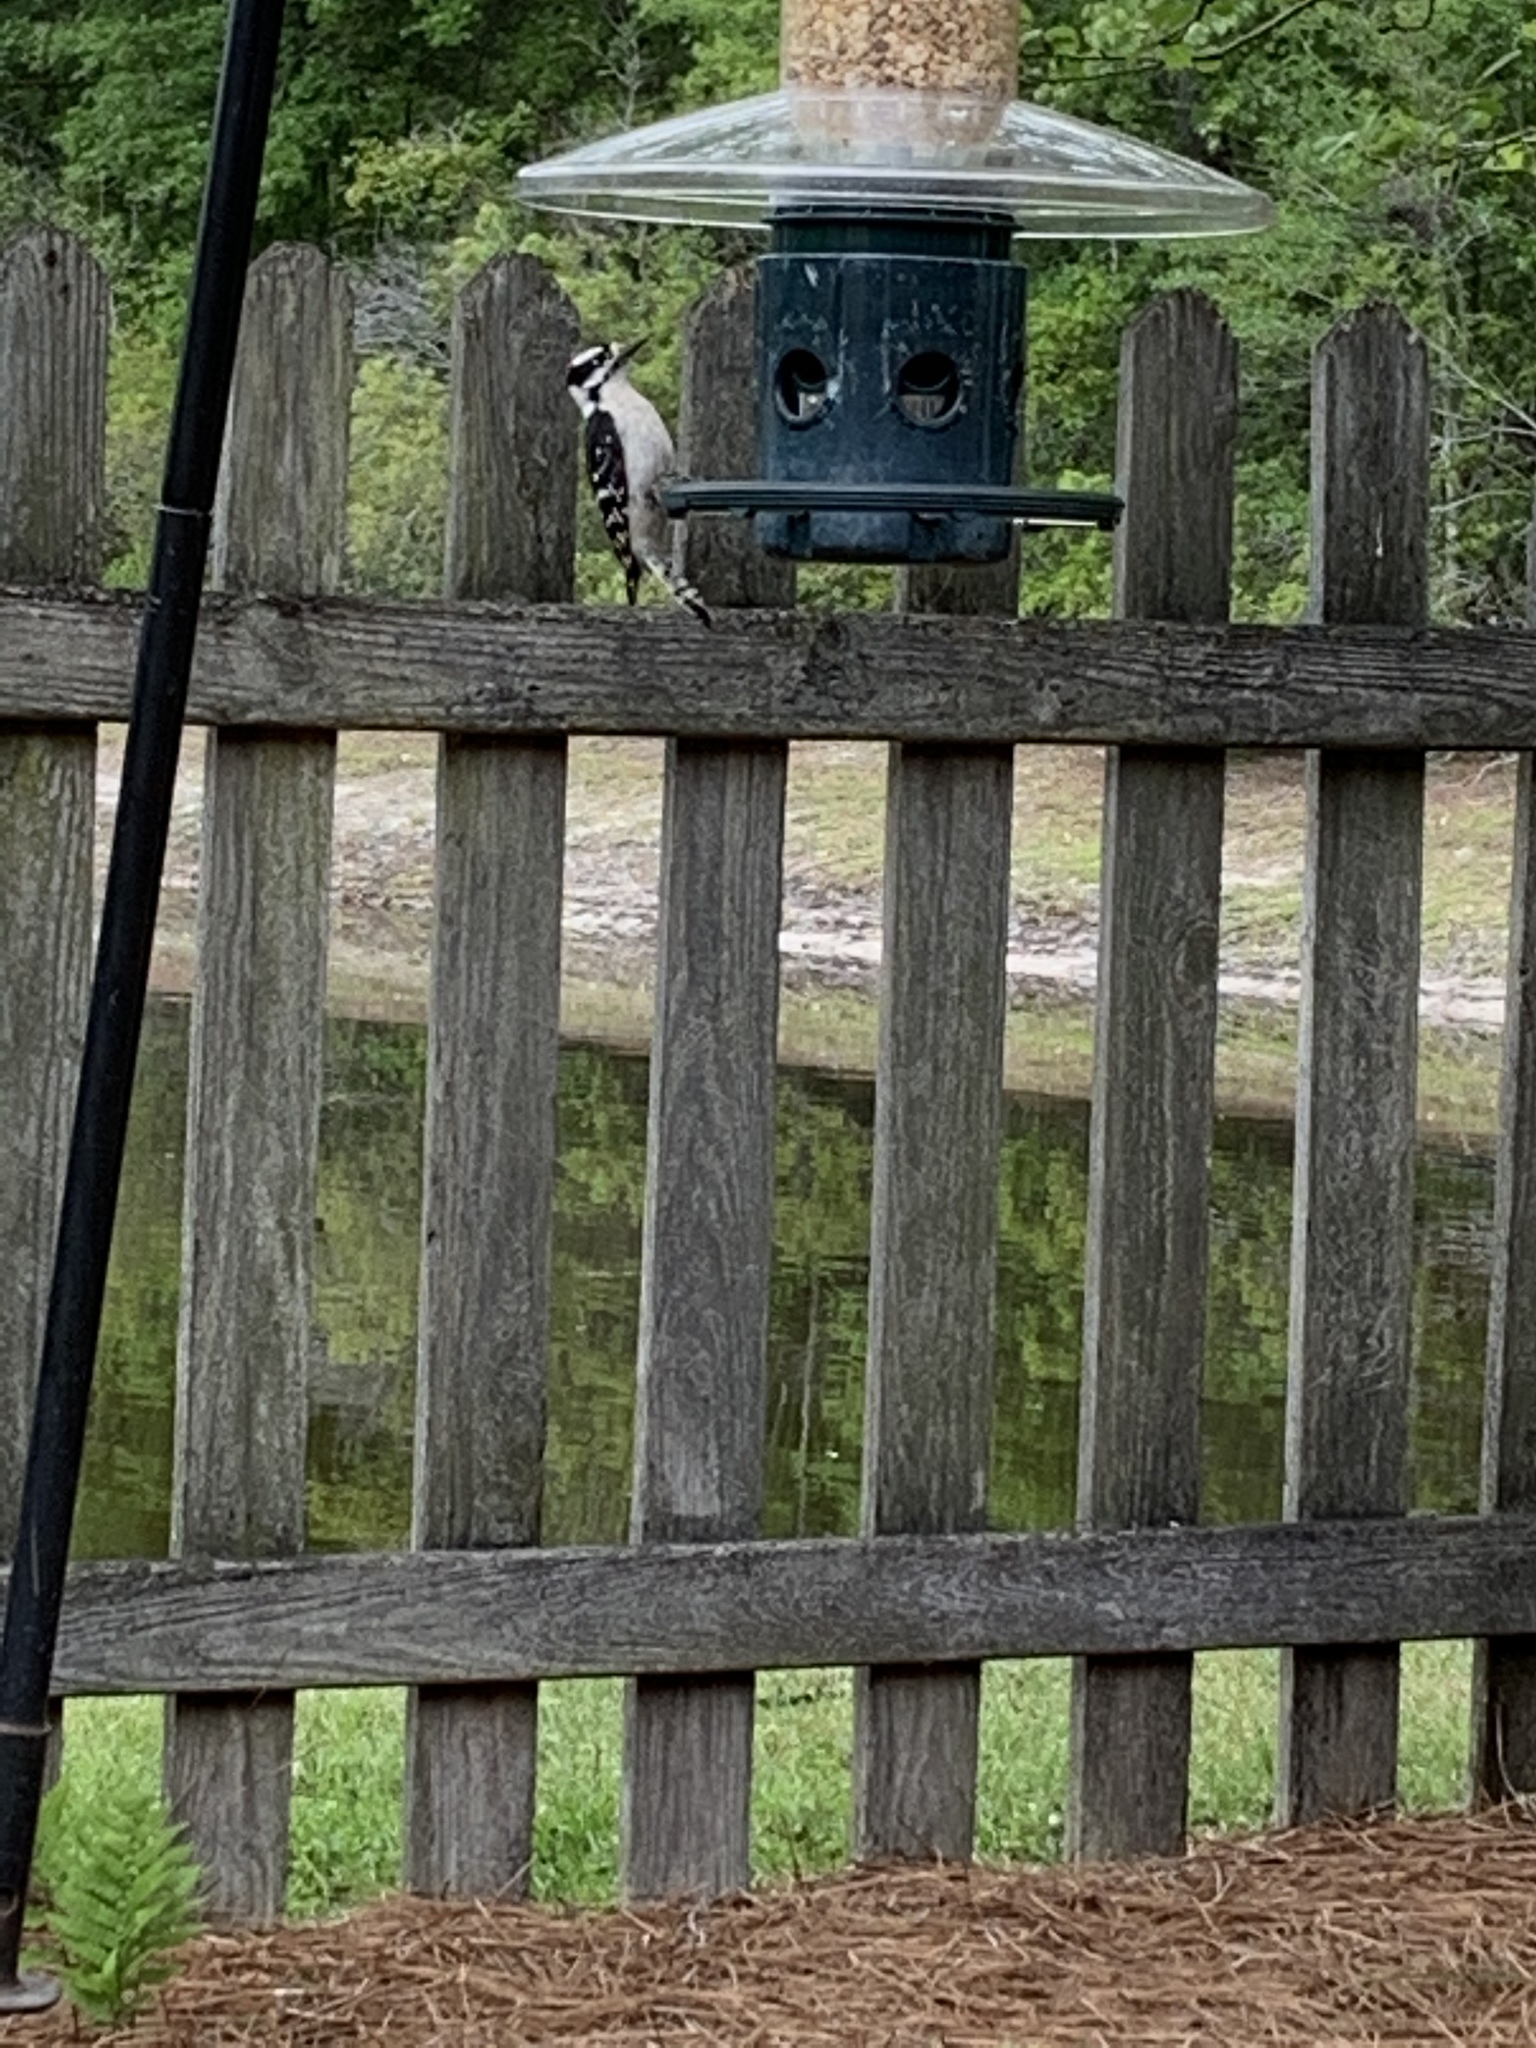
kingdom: Animalia
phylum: Chordata
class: Aves
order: Piciformes
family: Picidae
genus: Dryobates
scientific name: Dryobates pubescens
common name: Downy woodpecker
